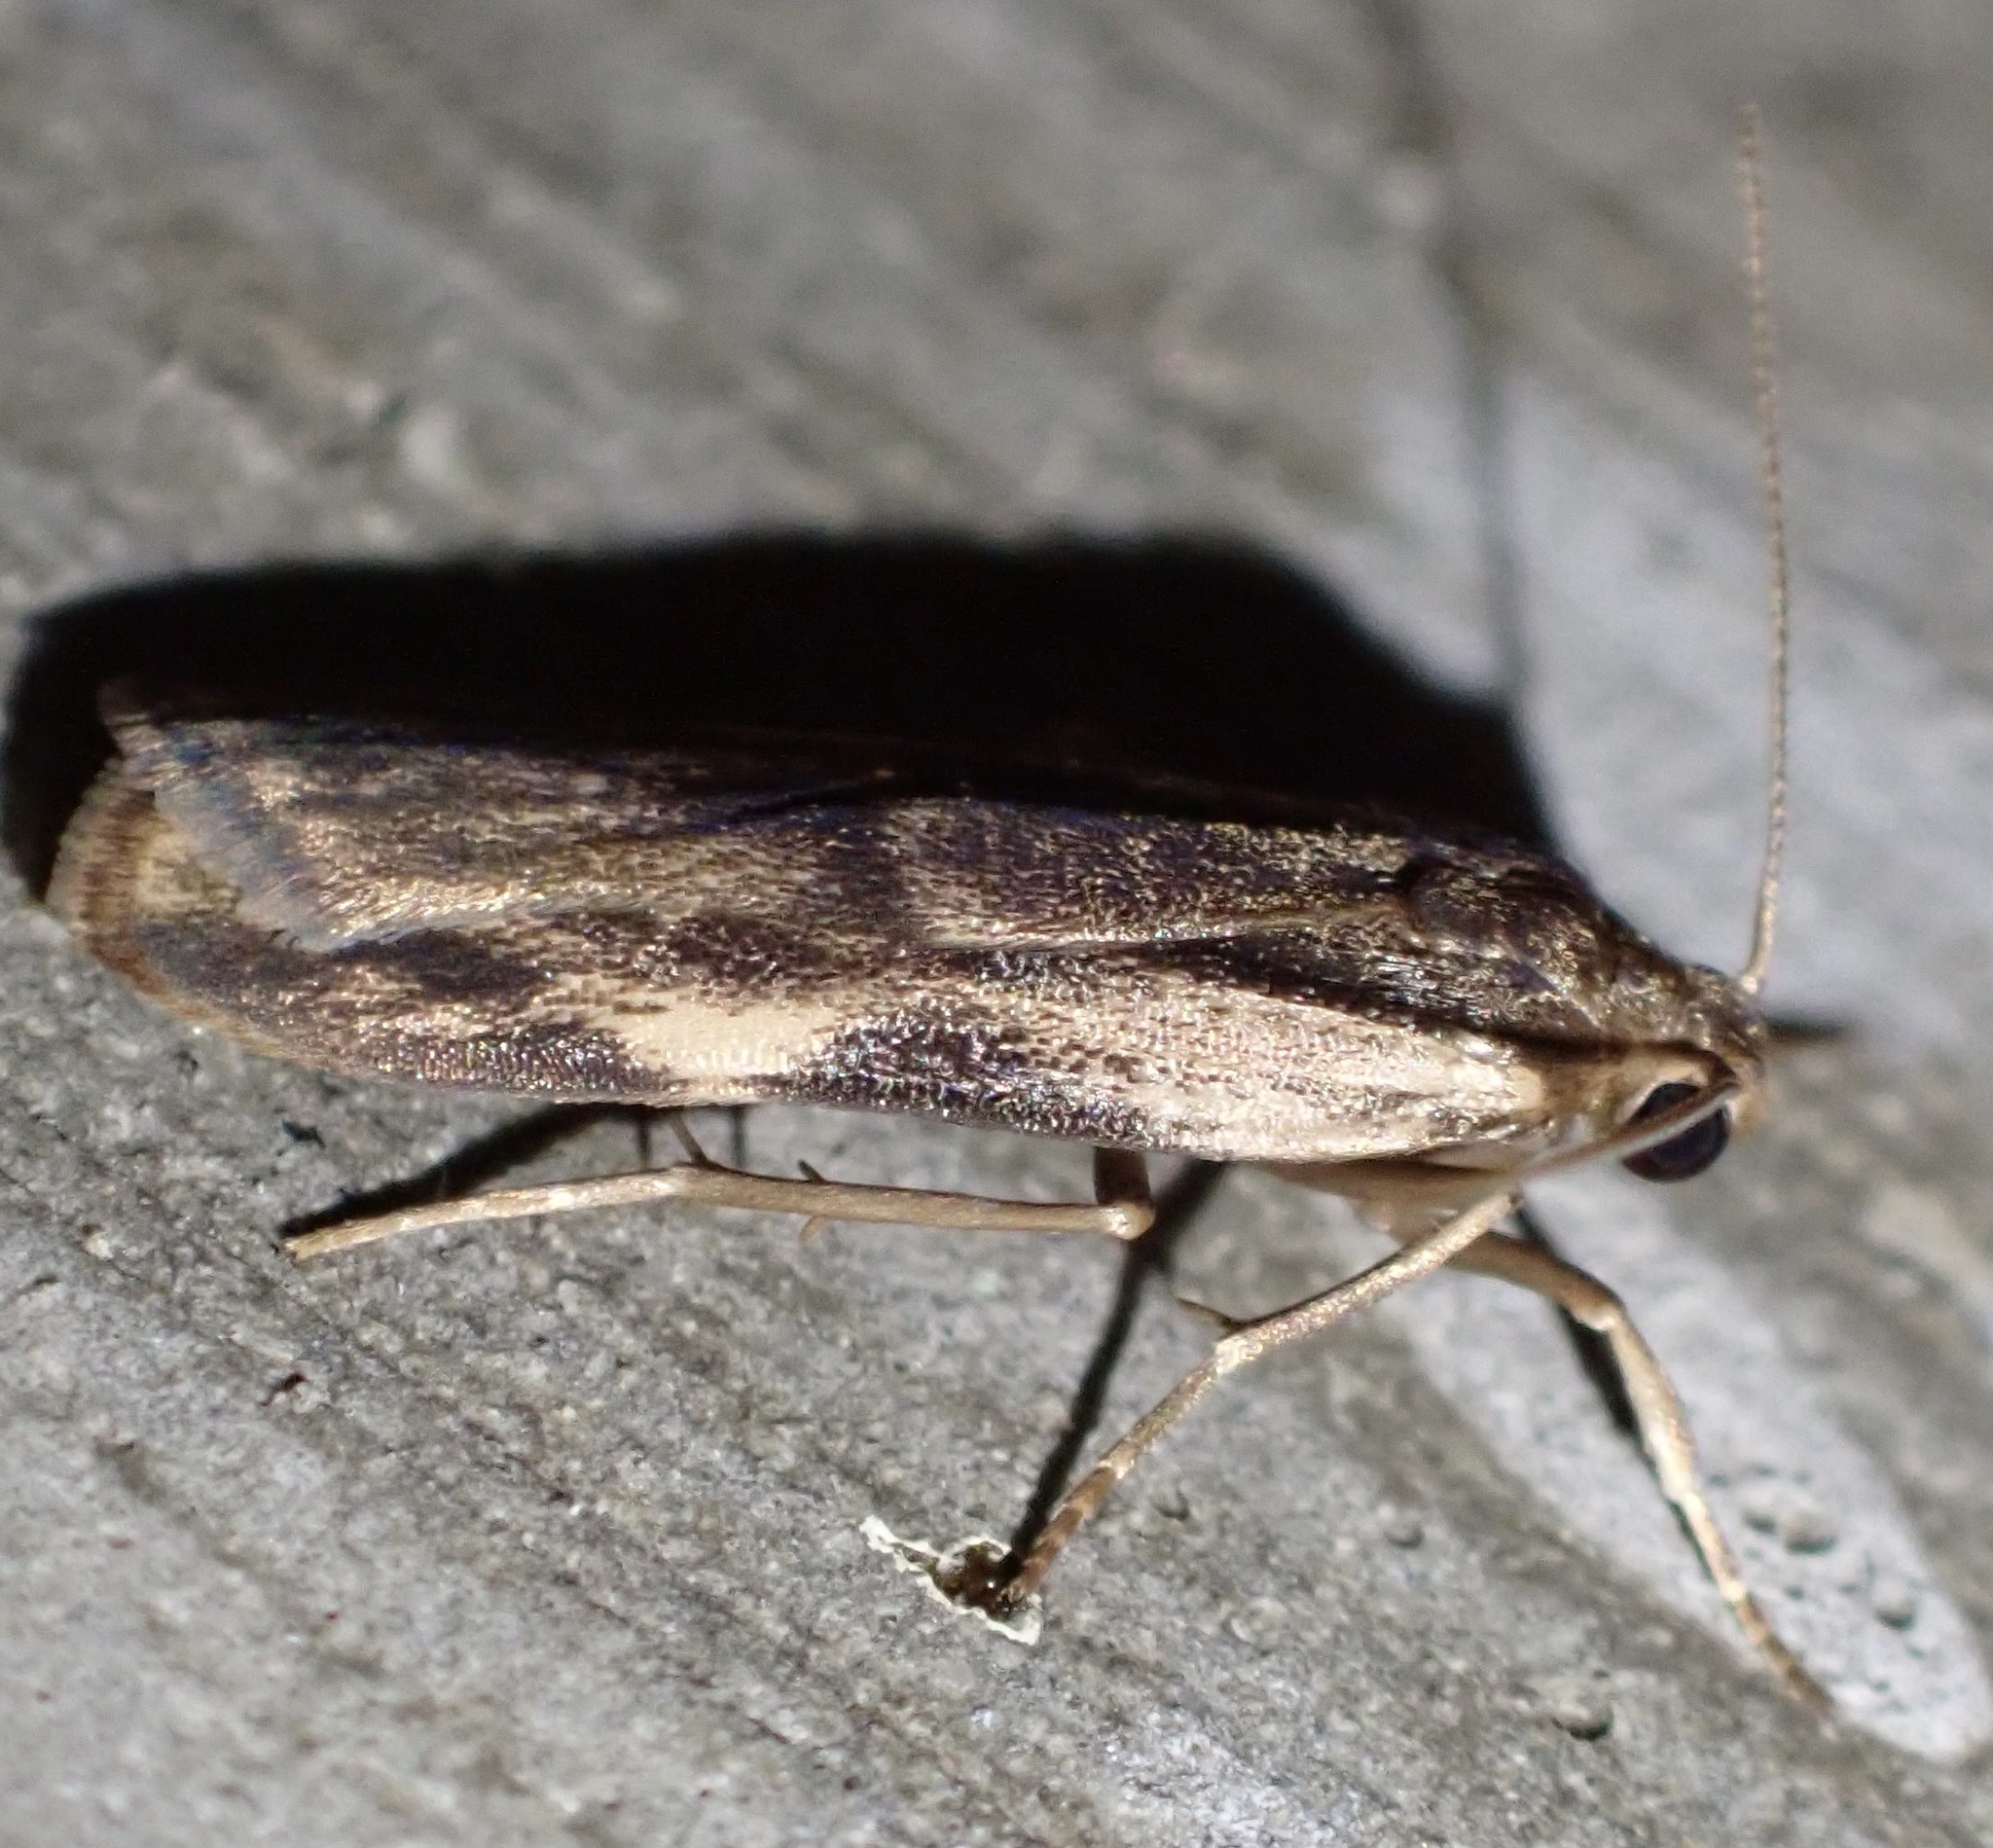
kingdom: Animalia
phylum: Arthropoda
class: Insecta
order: Lepidoptera
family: Erebidae
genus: Tigrioides
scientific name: Tigrioides
